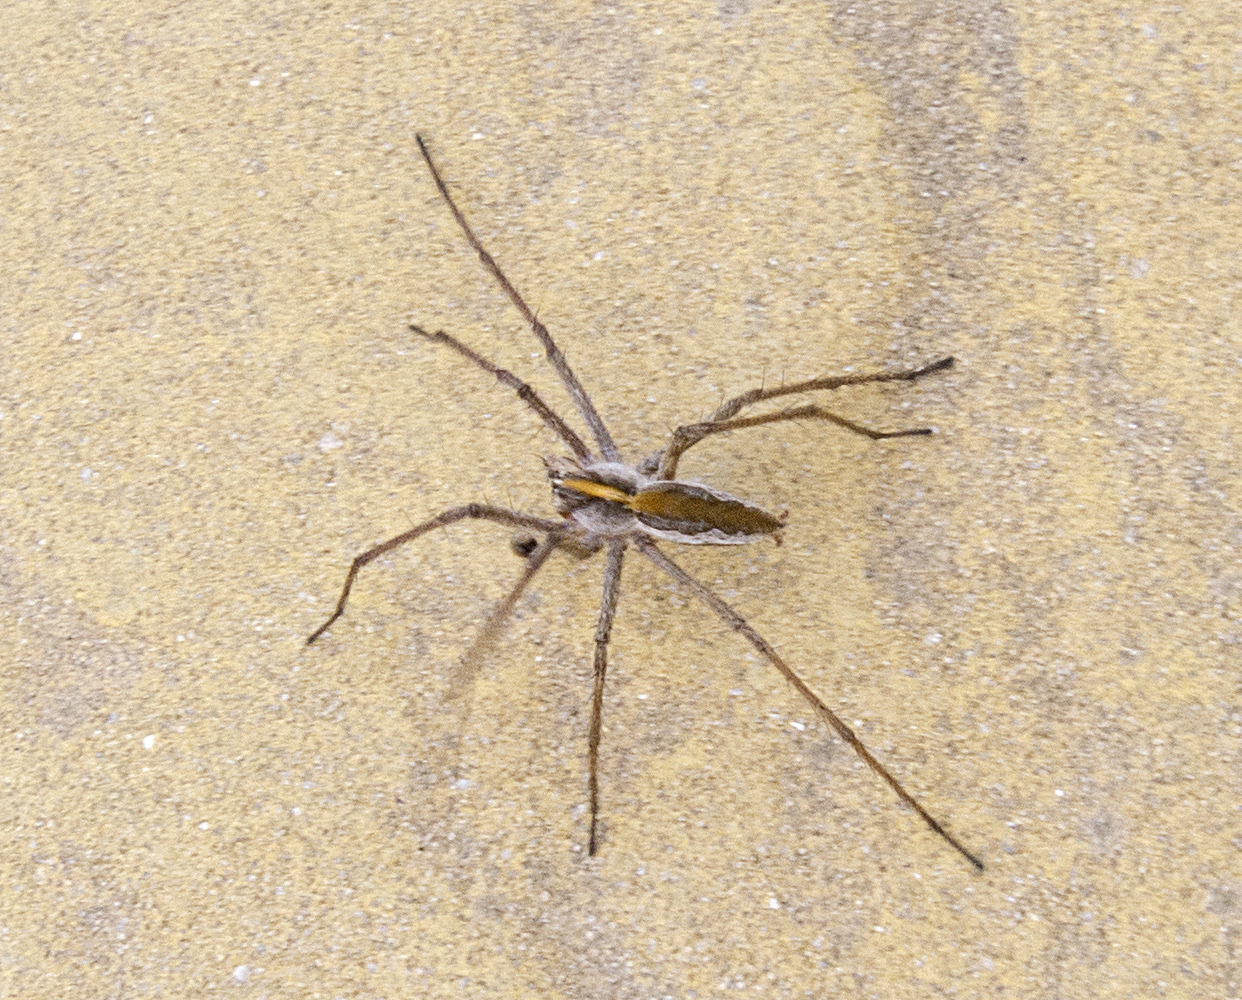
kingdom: Animalia
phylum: Arthropoda
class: Arachnida
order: Araneae
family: Pisauridae
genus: Pisaura
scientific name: Pisaura
